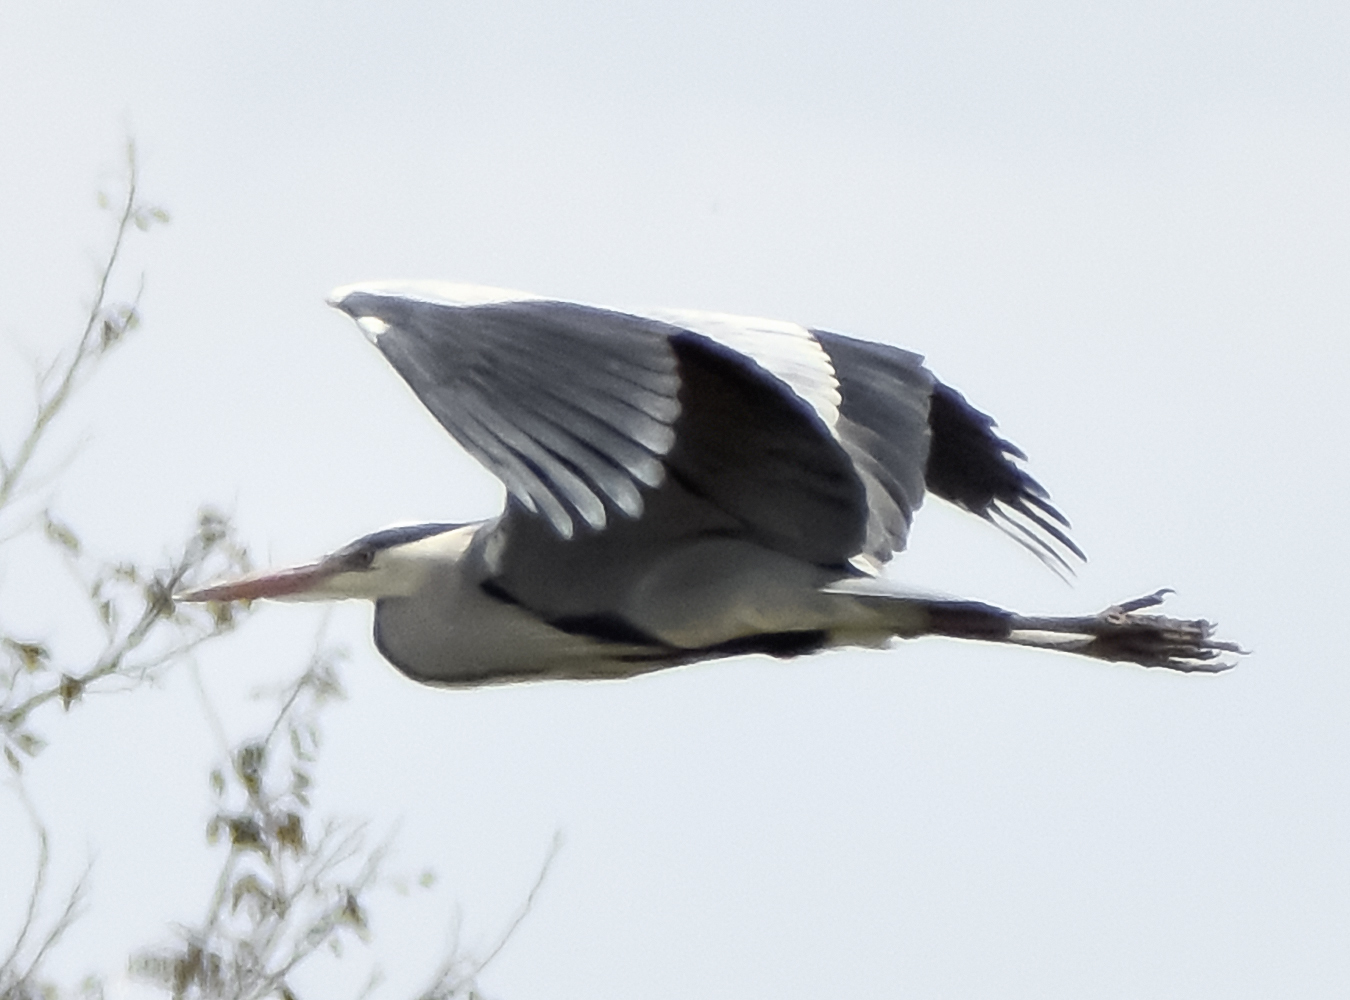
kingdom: Animalia
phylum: Chordata
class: Aves
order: Pelecaniformes
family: Ardeidae
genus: Ardea
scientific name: Ardea cinerea
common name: Grey heron
